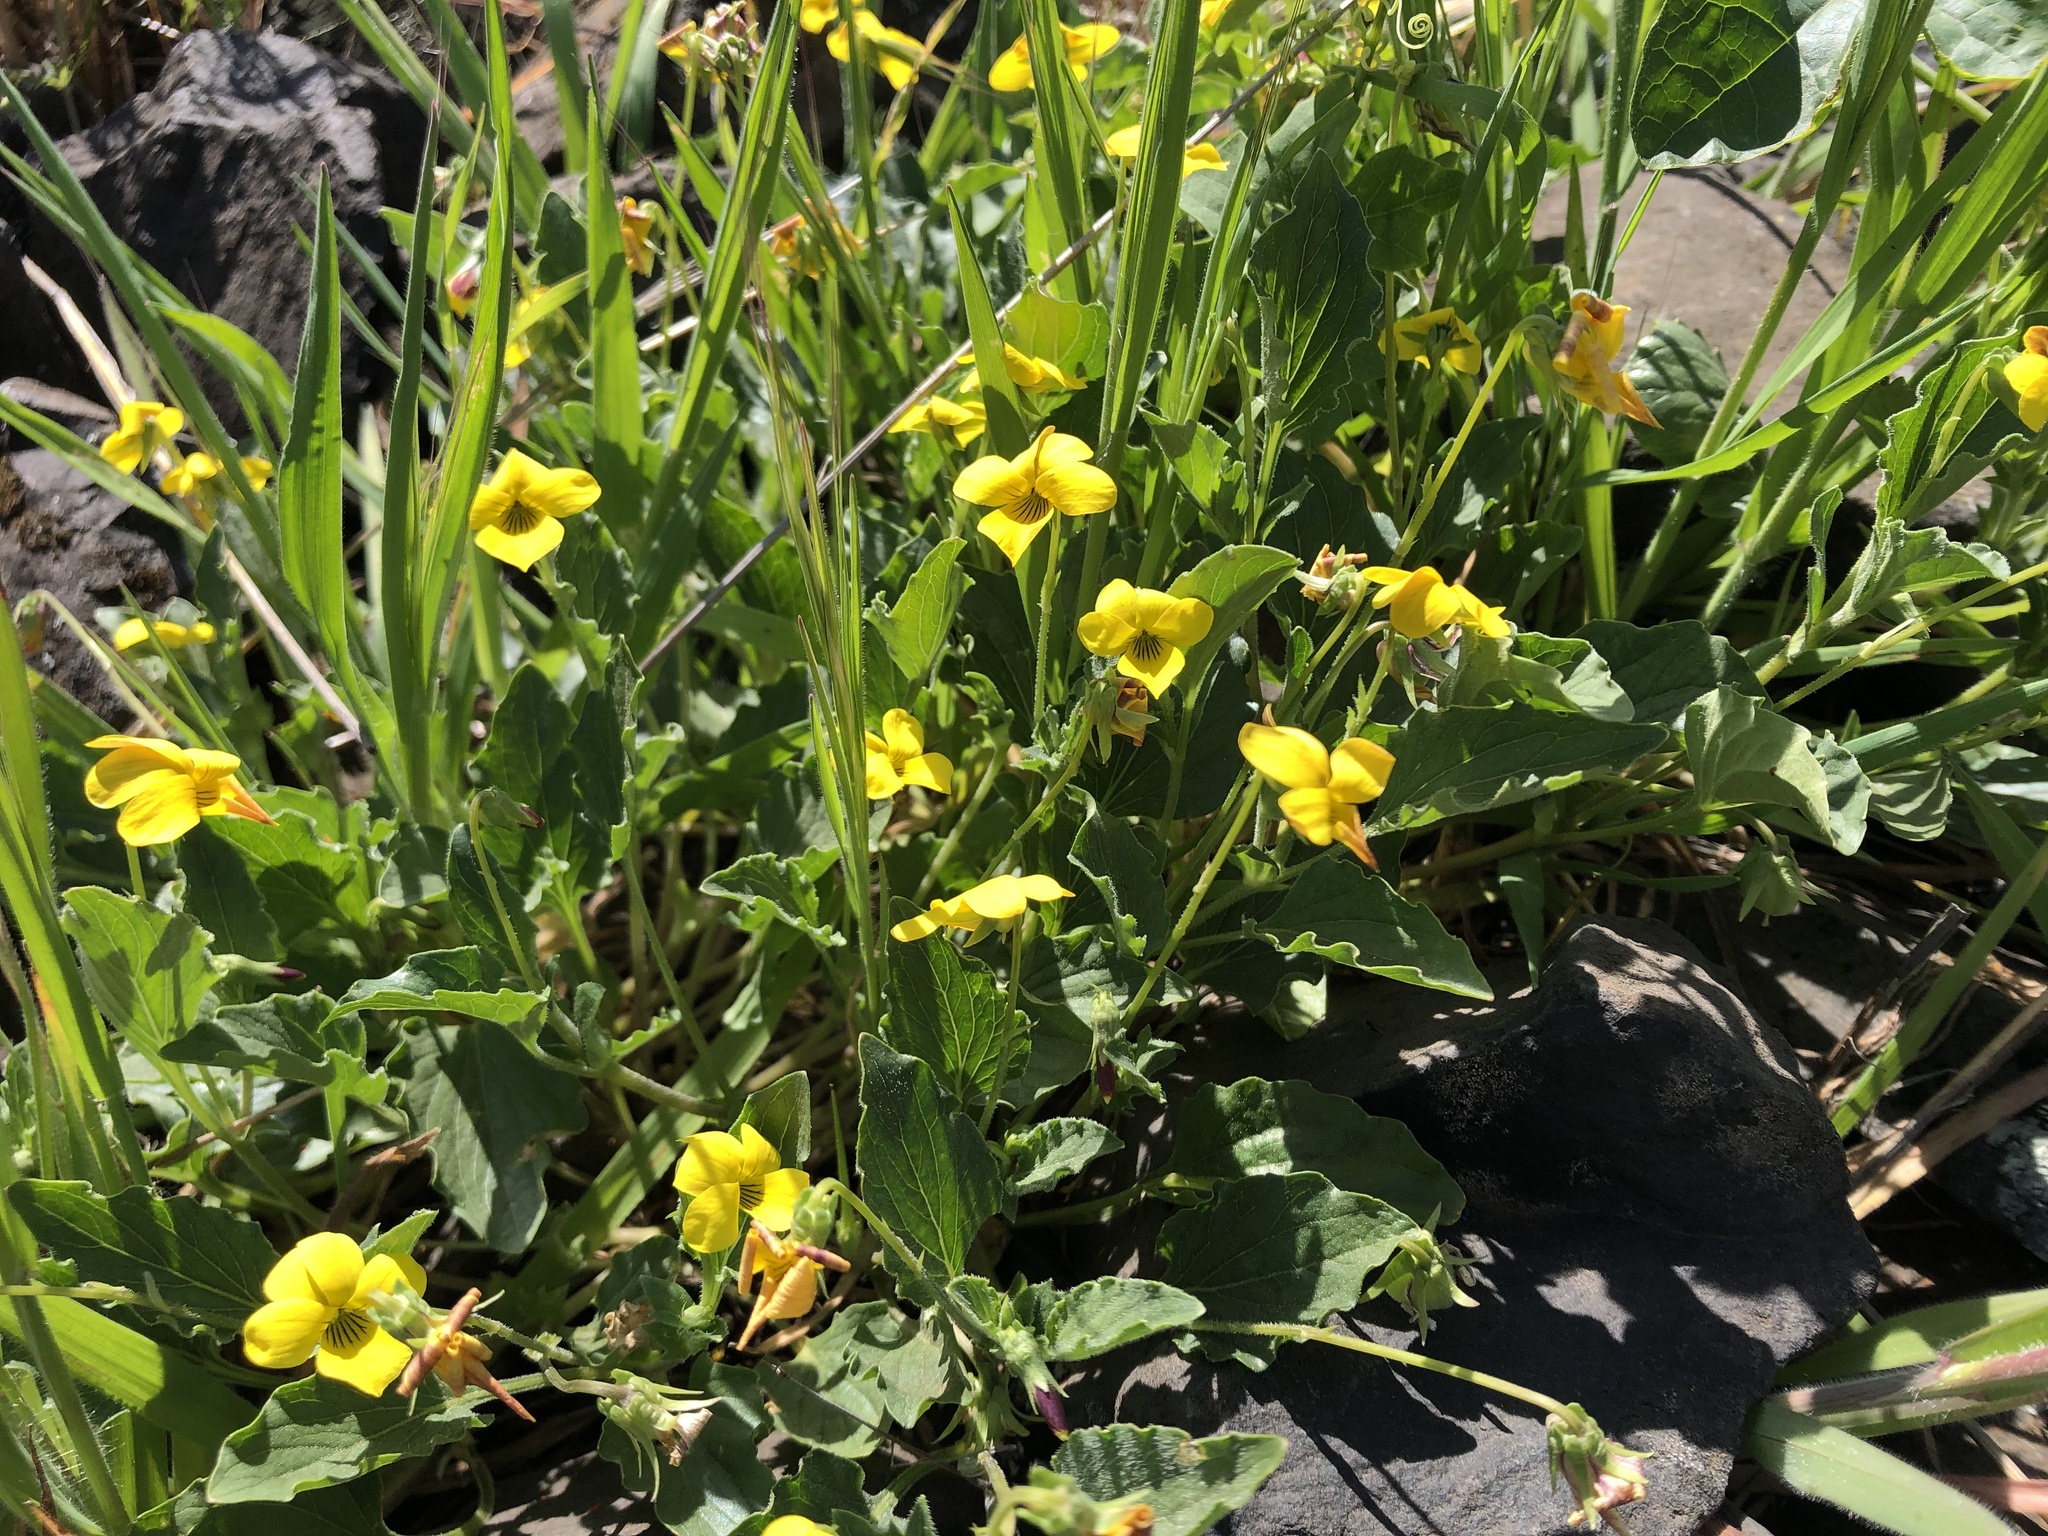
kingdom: Plantae
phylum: Tracheophyta
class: Magnoliopsida
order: Malpighiales
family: Violaceae
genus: Viola
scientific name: Viola purpurea
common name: Pine violet
